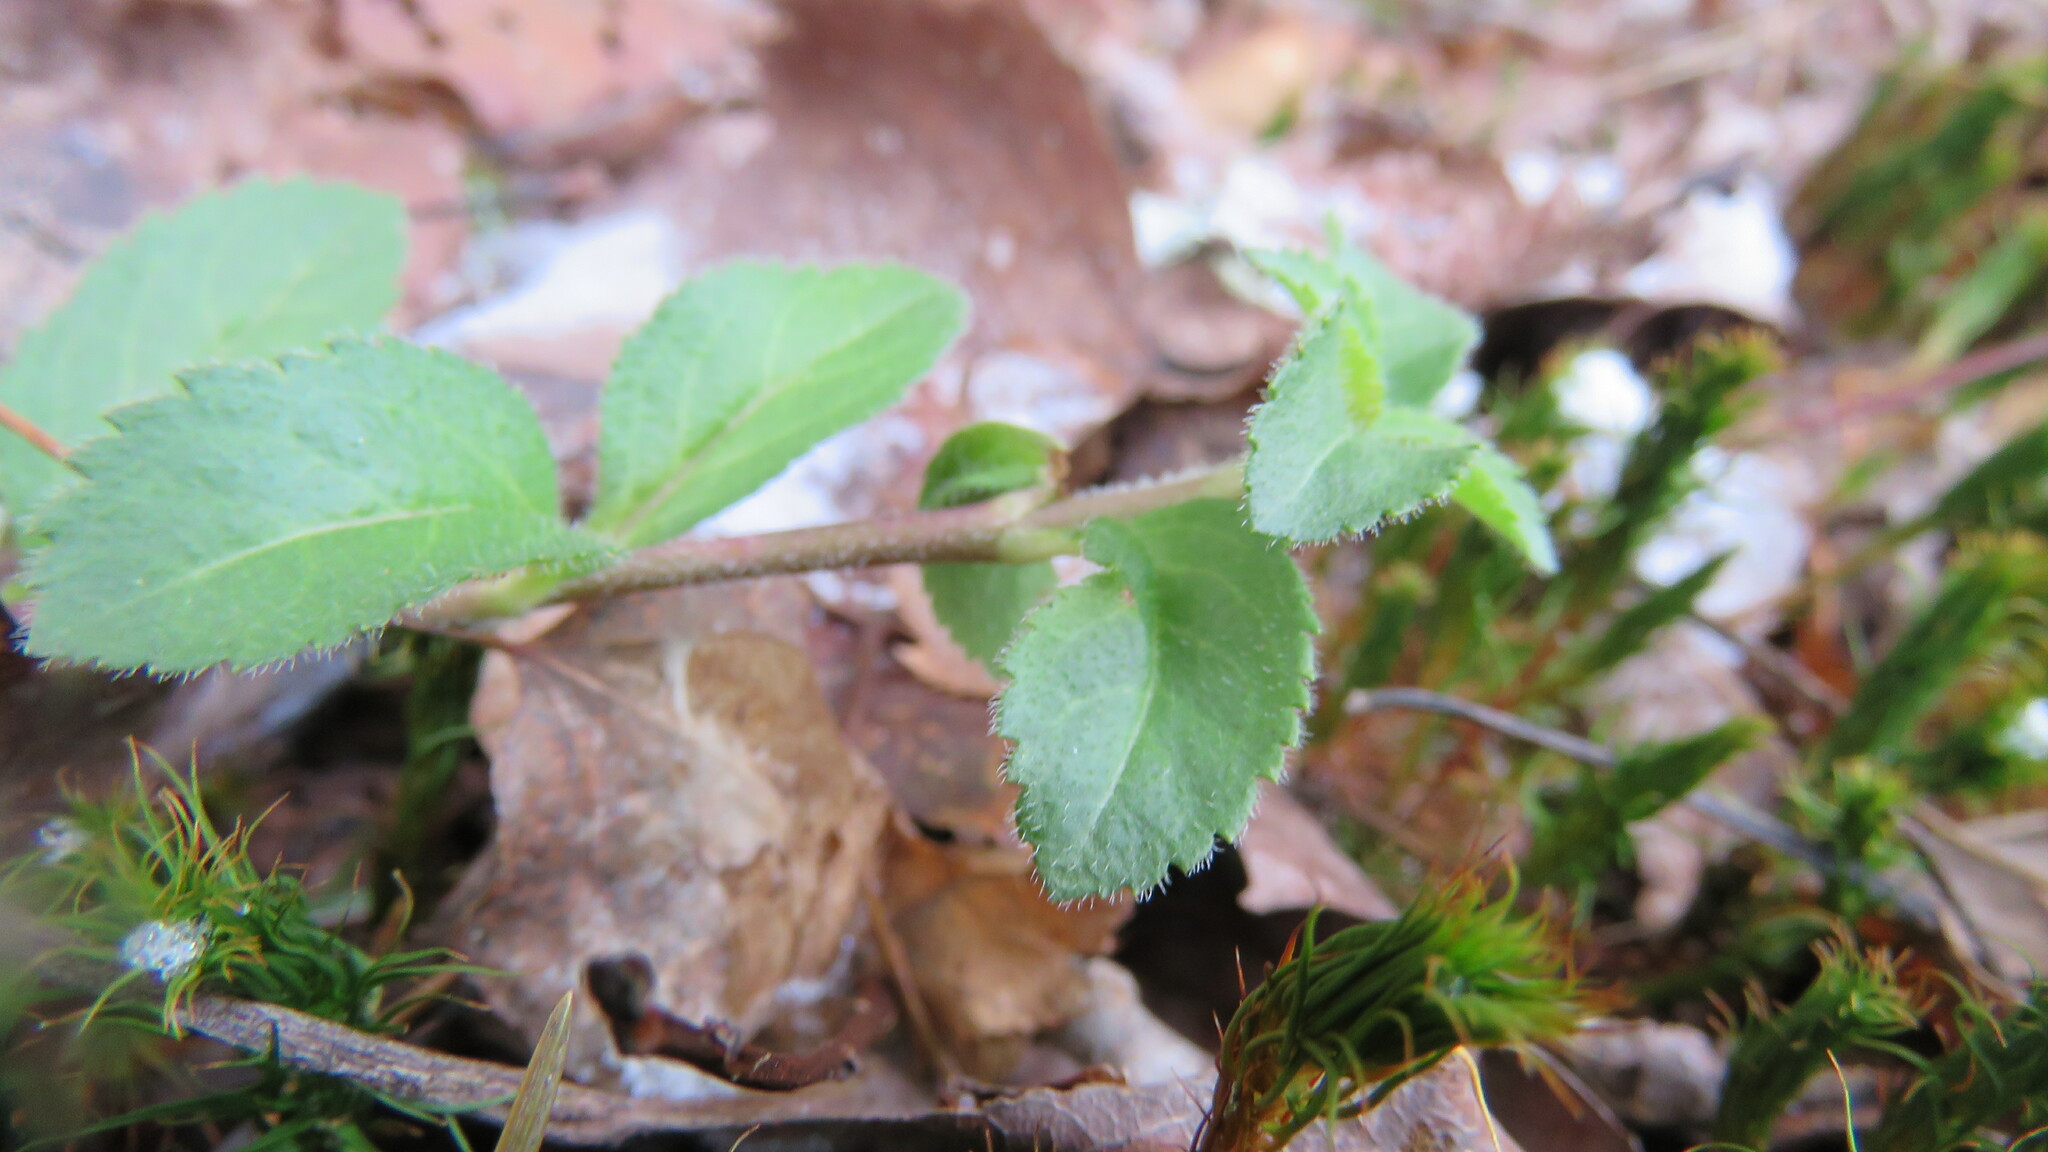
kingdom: Plantae
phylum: Tracheophyta
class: Magnoliopsida
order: Lamiales
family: Plantaginaceae
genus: Veronica
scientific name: Veronica officinalis
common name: Common speedwell
